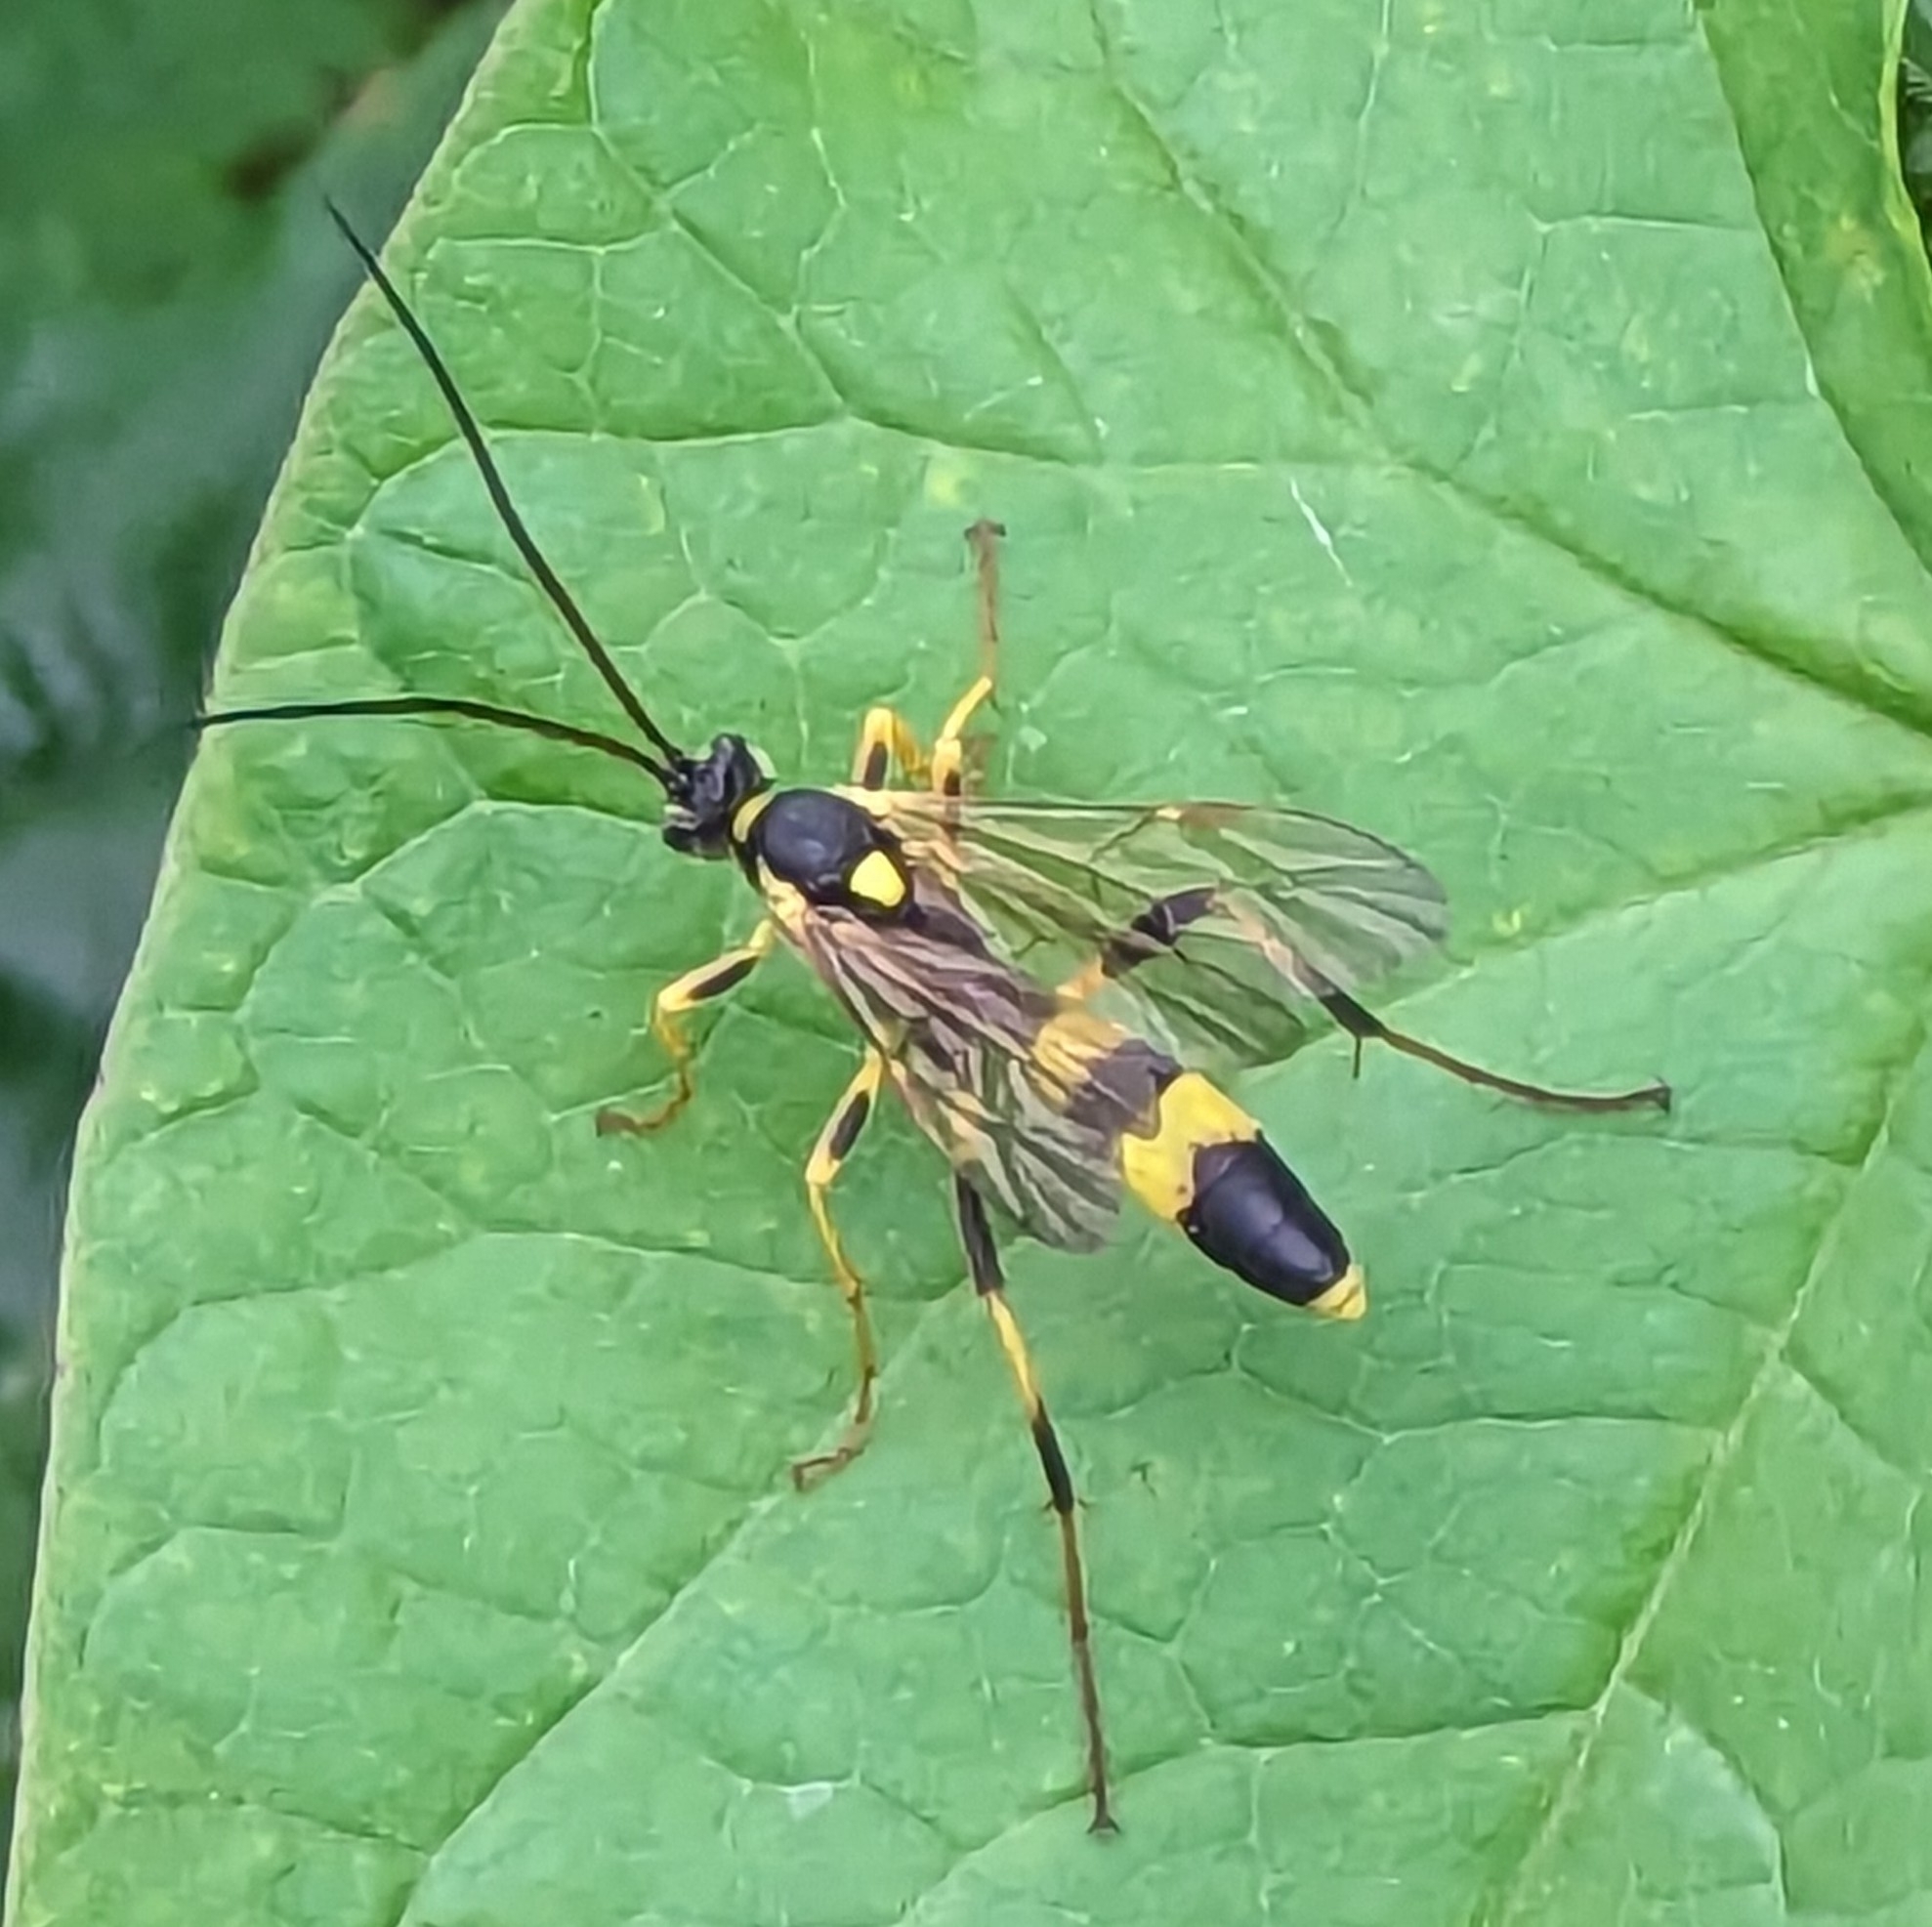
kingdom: Animalia
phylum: Arthropoda
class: Insecta
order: Hymenoptera
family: Ichneumonidae
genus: Amblyteles
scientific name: Amblyteles armatorius
